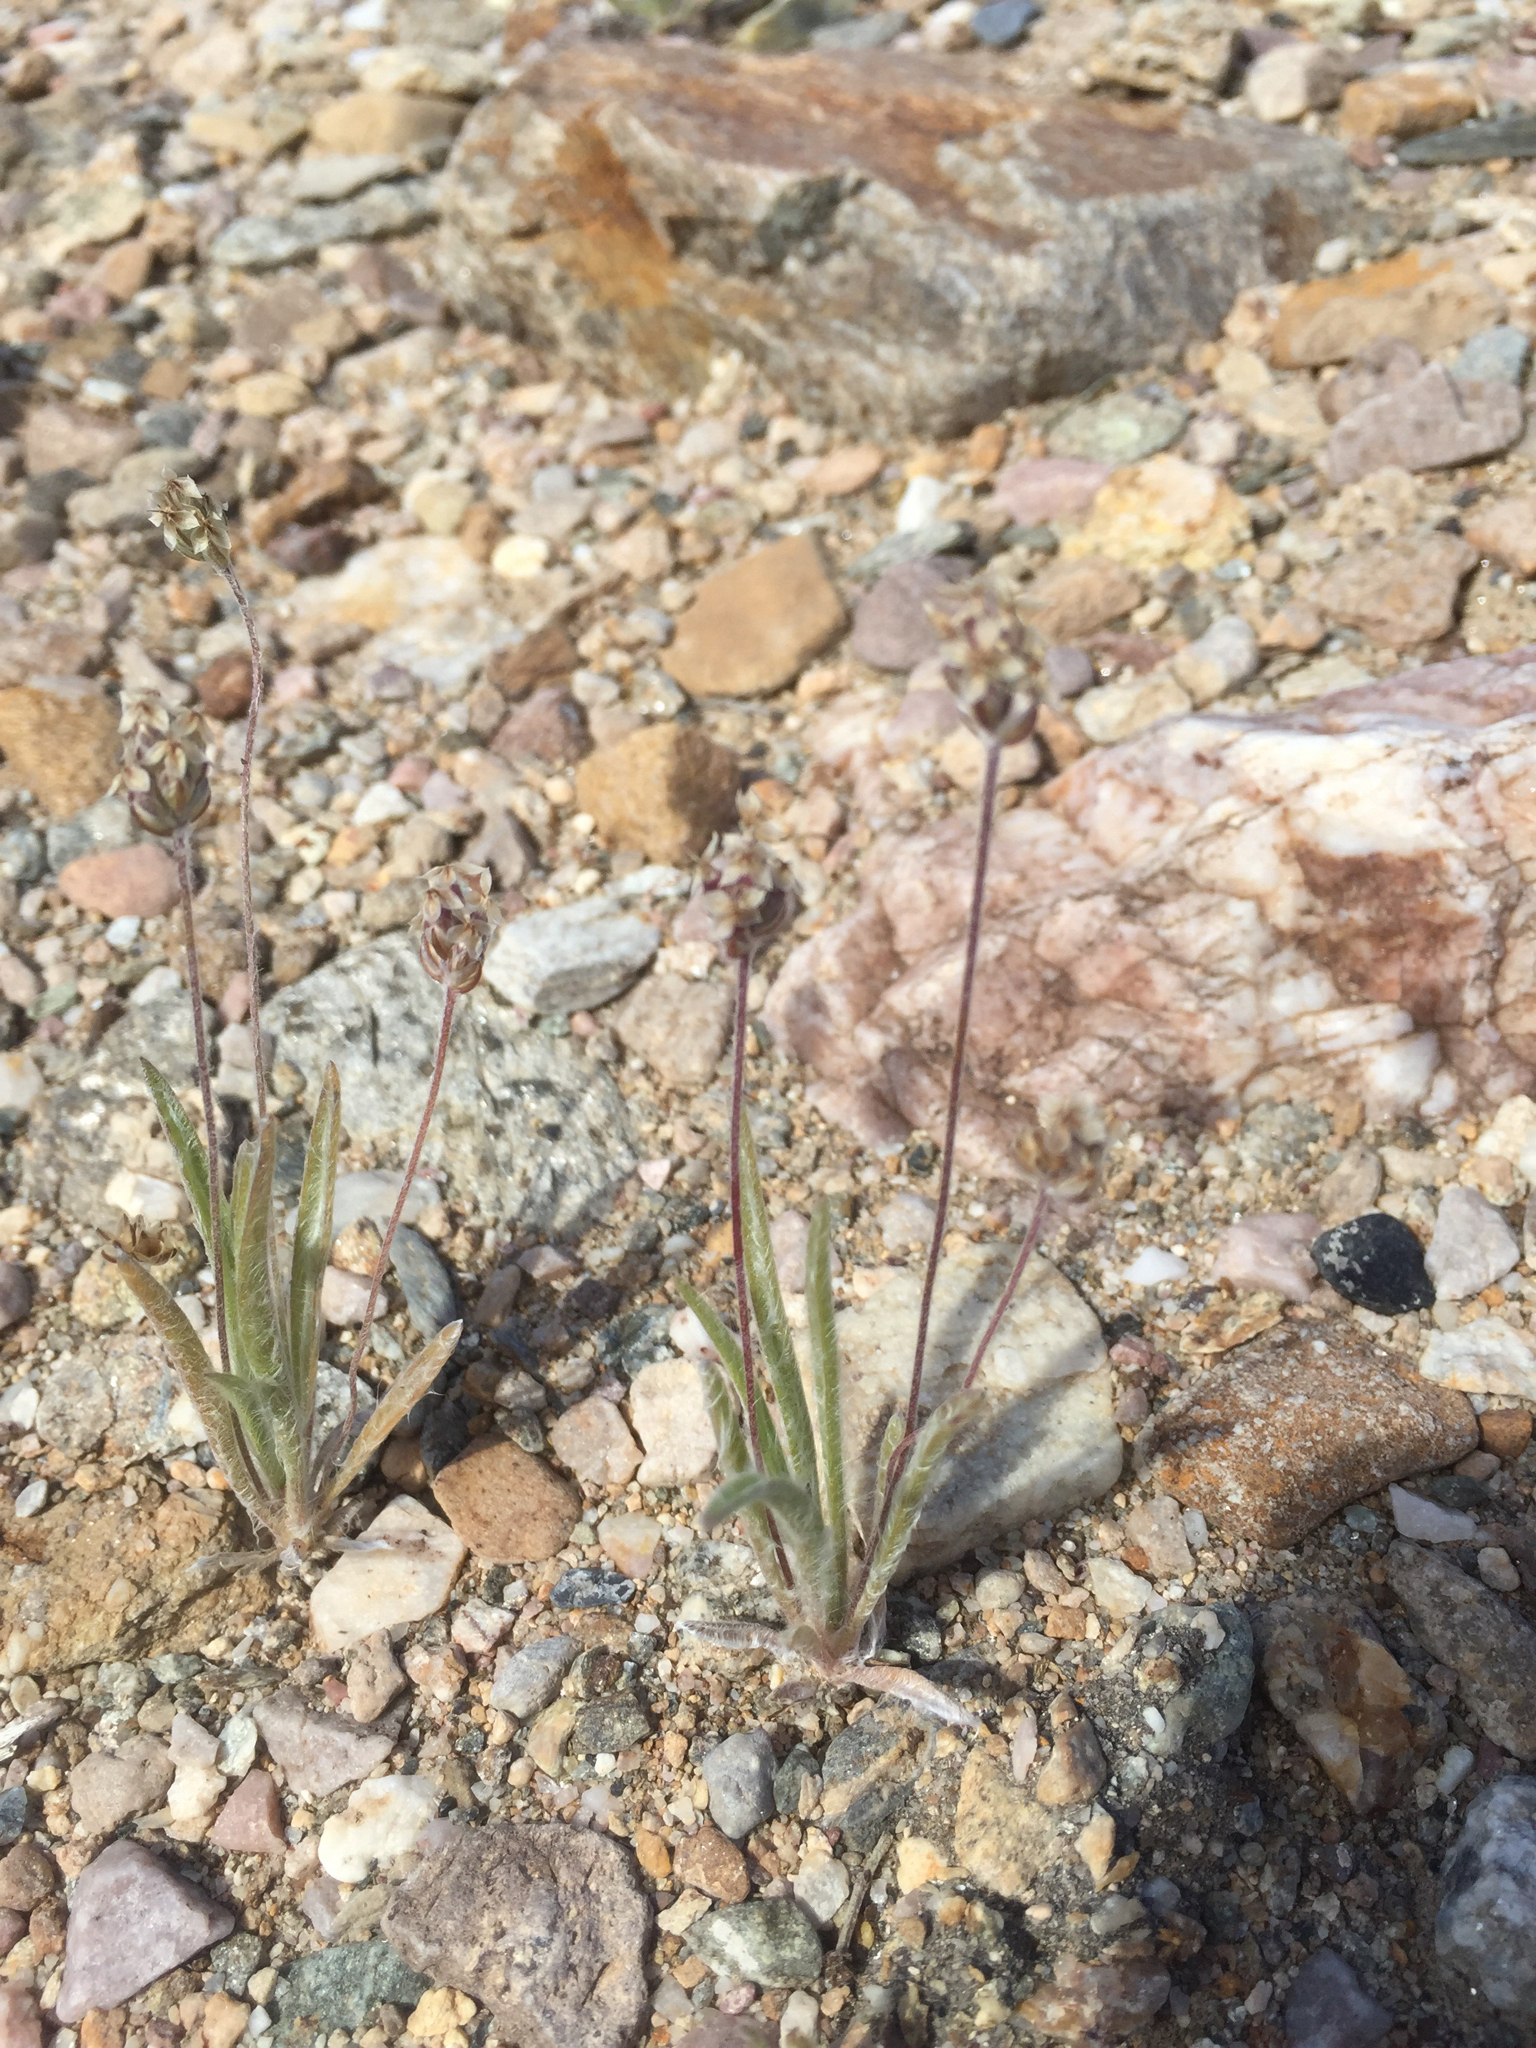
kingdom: Plantae
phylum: Tracheophyta
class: Magnoliopsida
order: Lamiales
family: Plantaginaceae
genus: Plantago
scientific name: Plantago ovata
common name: Blond plantain
